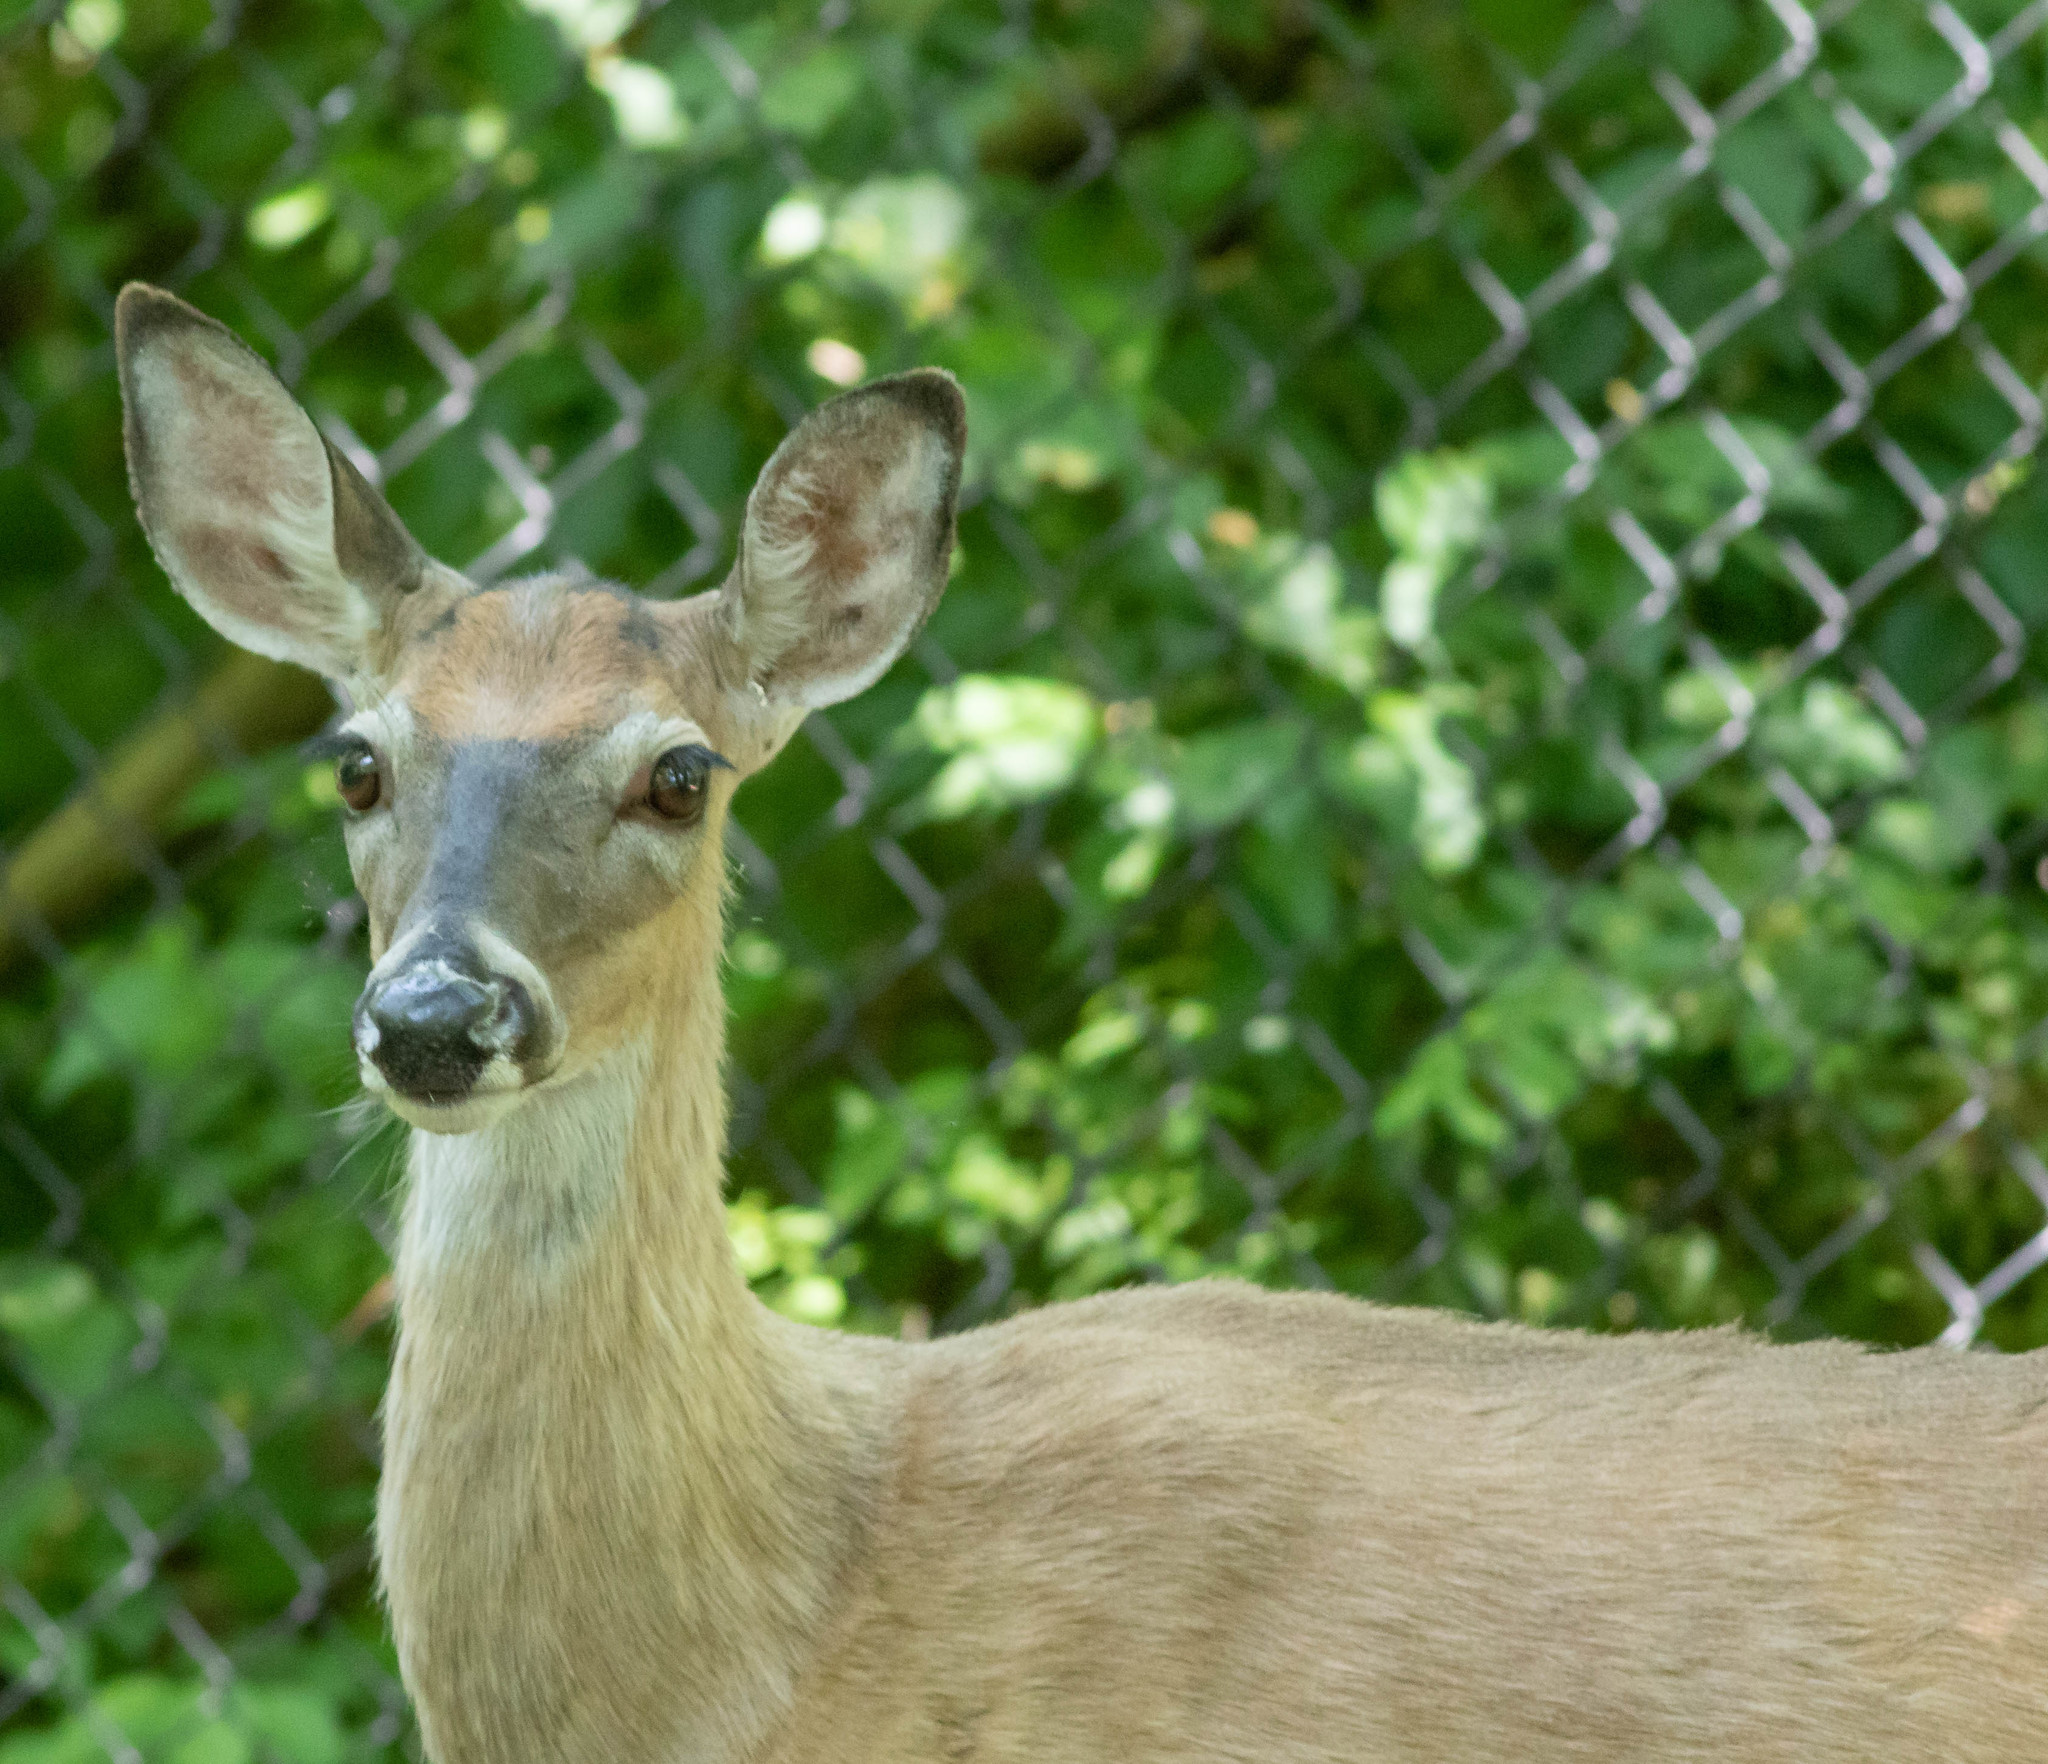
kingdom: Animalia
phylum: Chordata
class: Mammalia
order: Artiodactyla
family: Cervidae
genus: Odocoileus
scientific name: Odocoileus virginianus
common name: White-tailed deer
